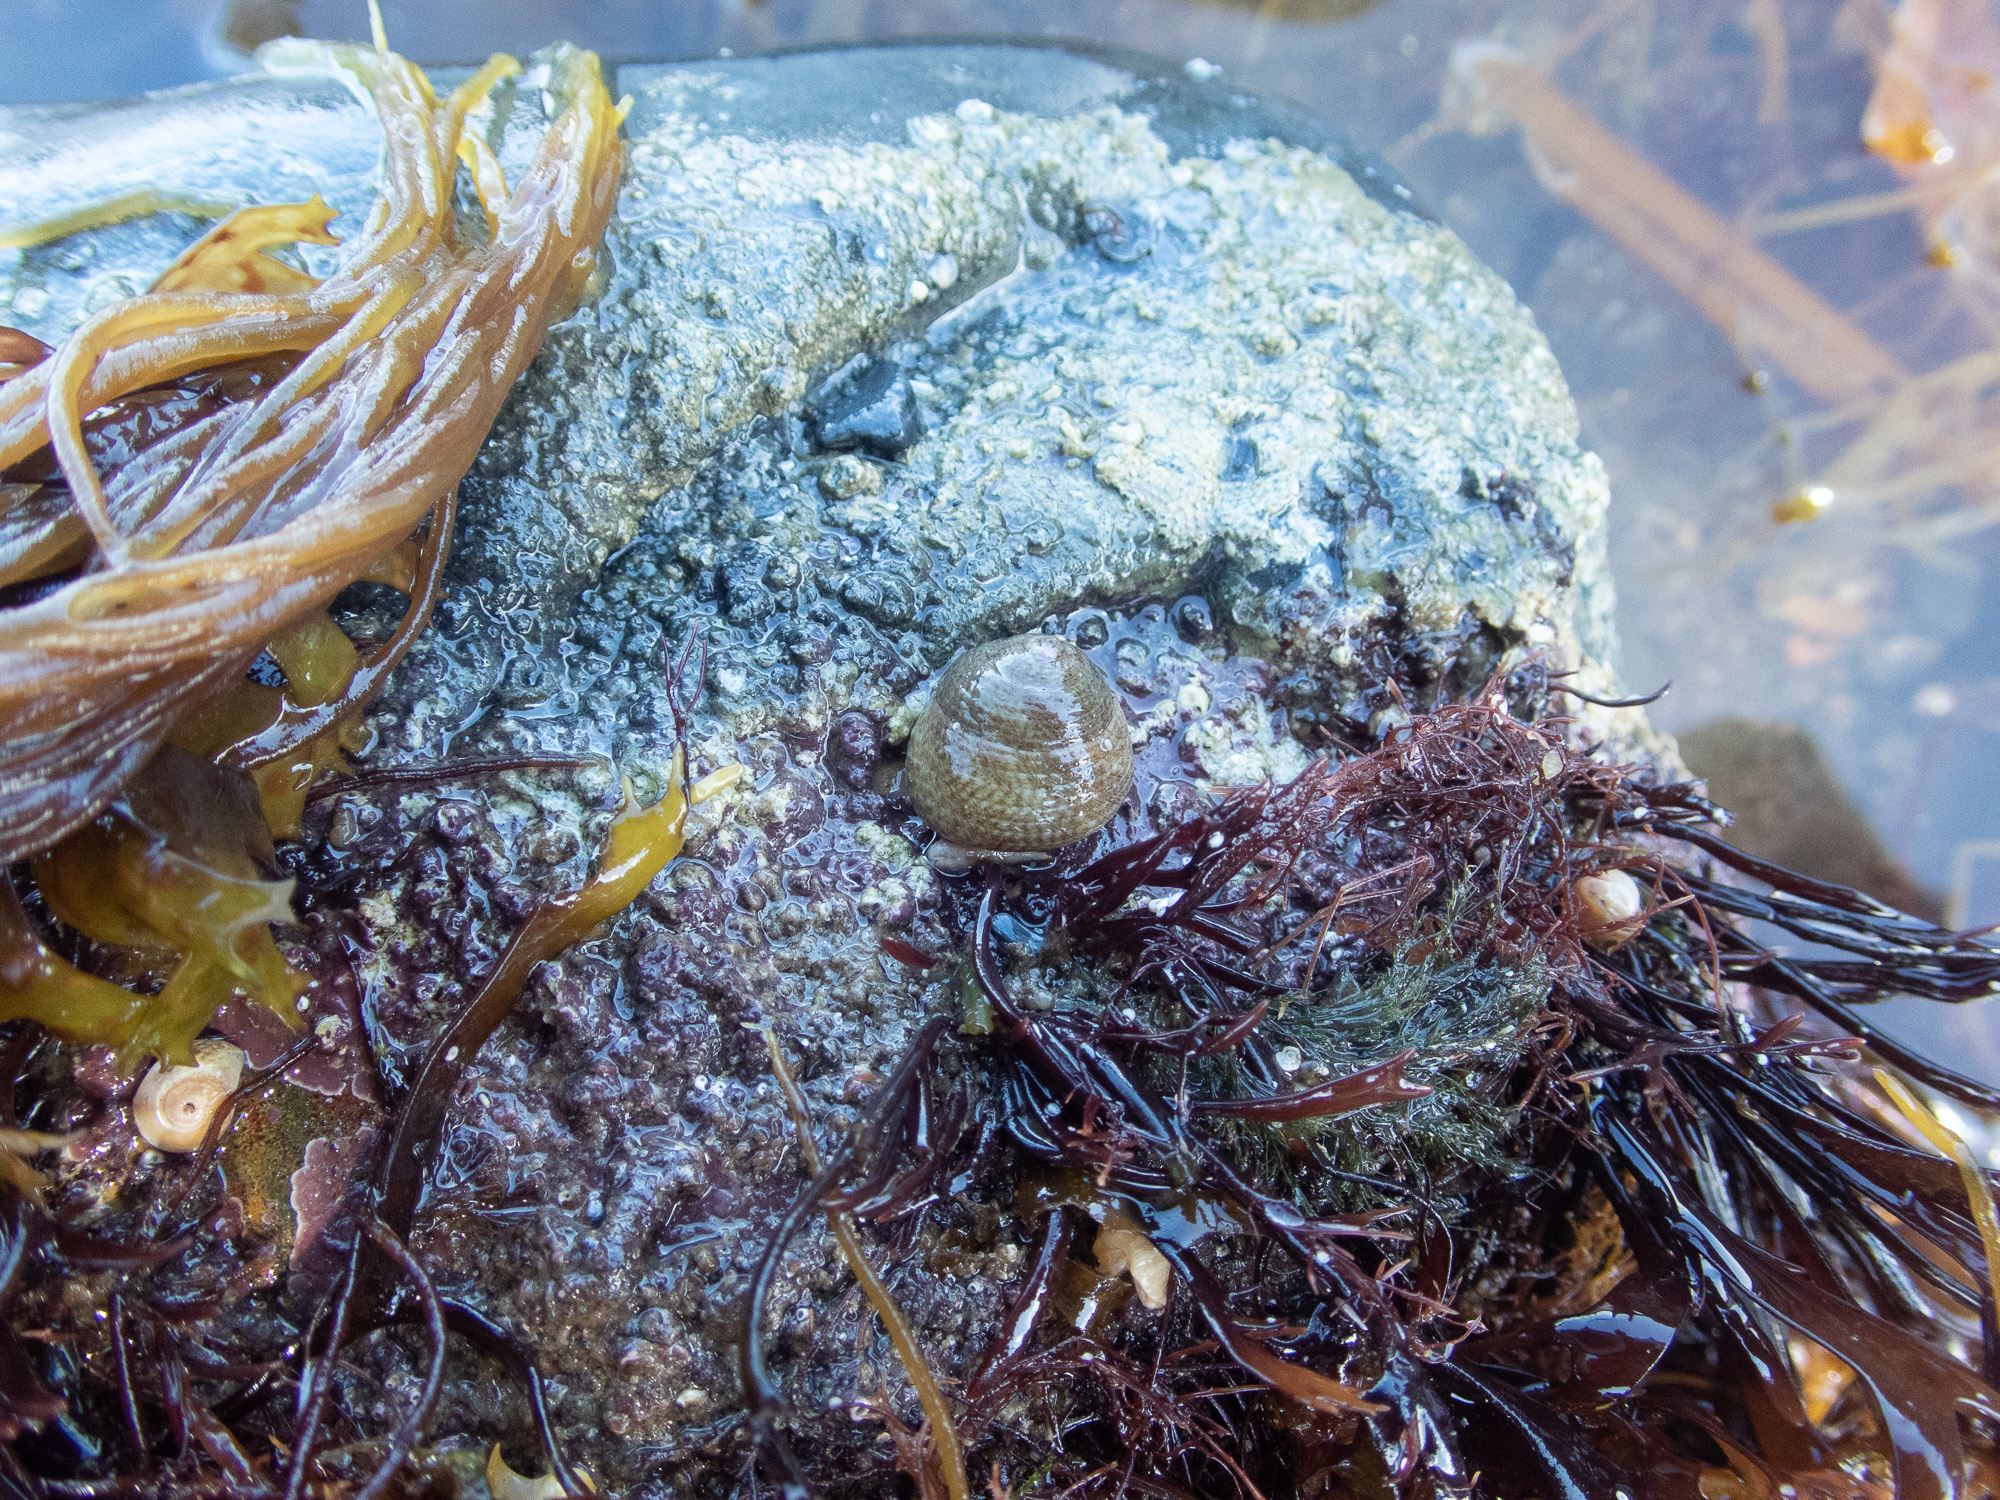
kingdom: Animalia
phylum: Mollusca
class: Gastropoda
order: Trochida
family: Trochidae
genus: Steromphala
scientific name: Steromphala cineraria
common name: Grey top shell
